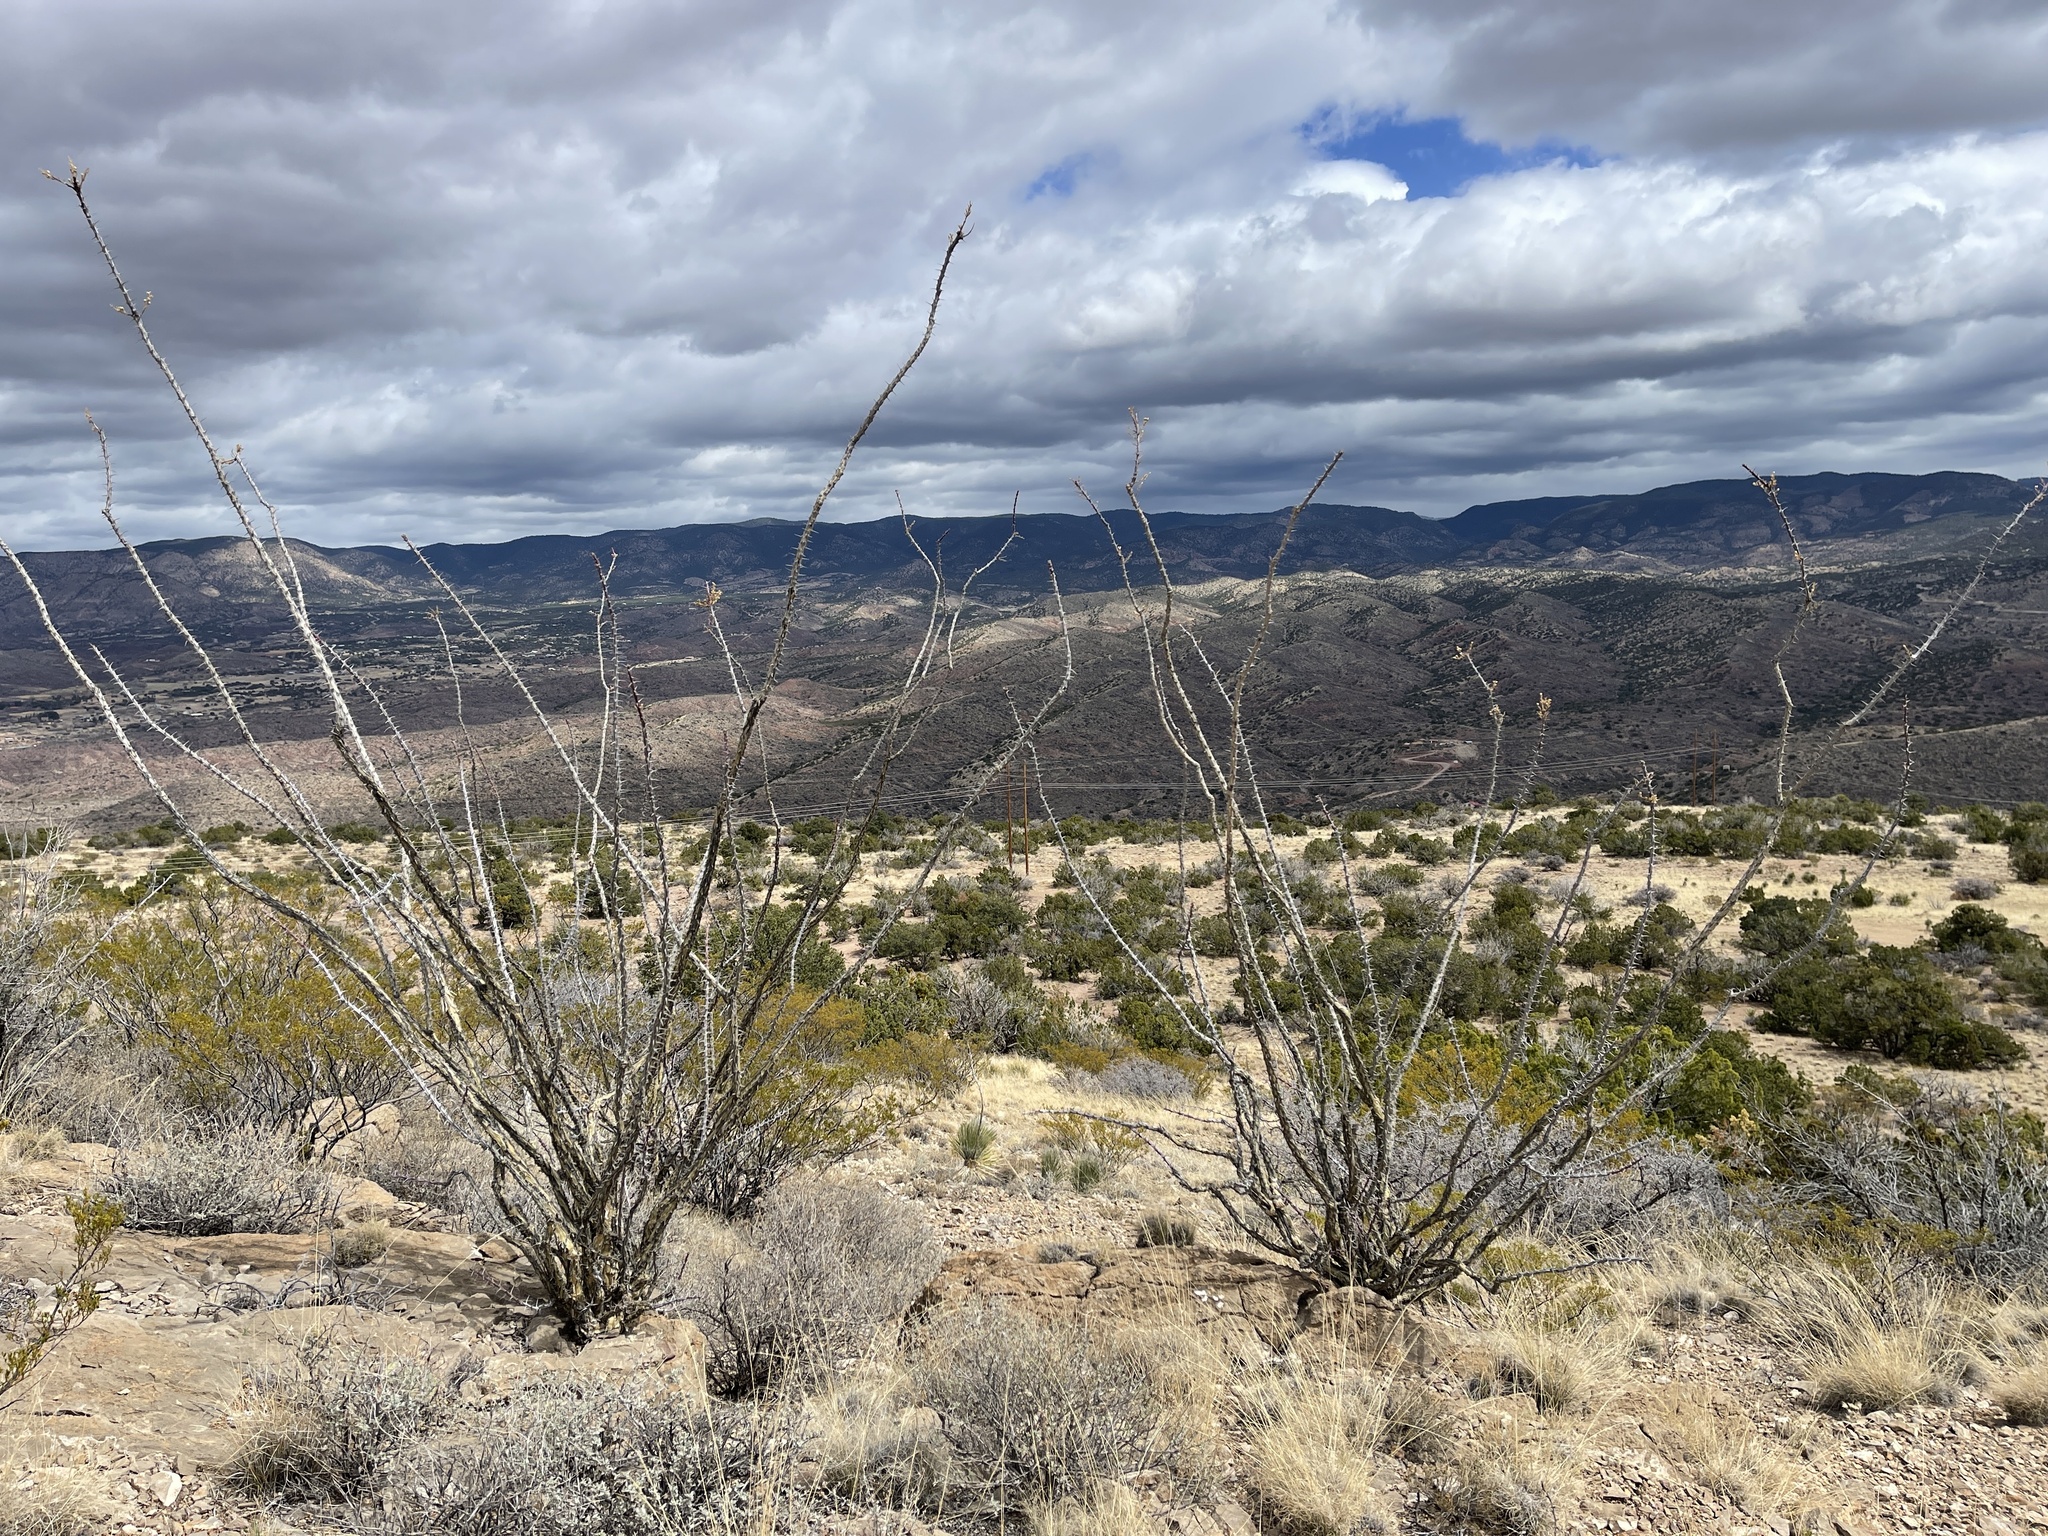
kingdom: Plantae
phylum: Tracheophyta
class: Magnoliopsida
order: Ericales
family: Fouquieriaceae
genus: Fouquieria
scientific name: Fouquieria splendens
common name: Vine-cactus
